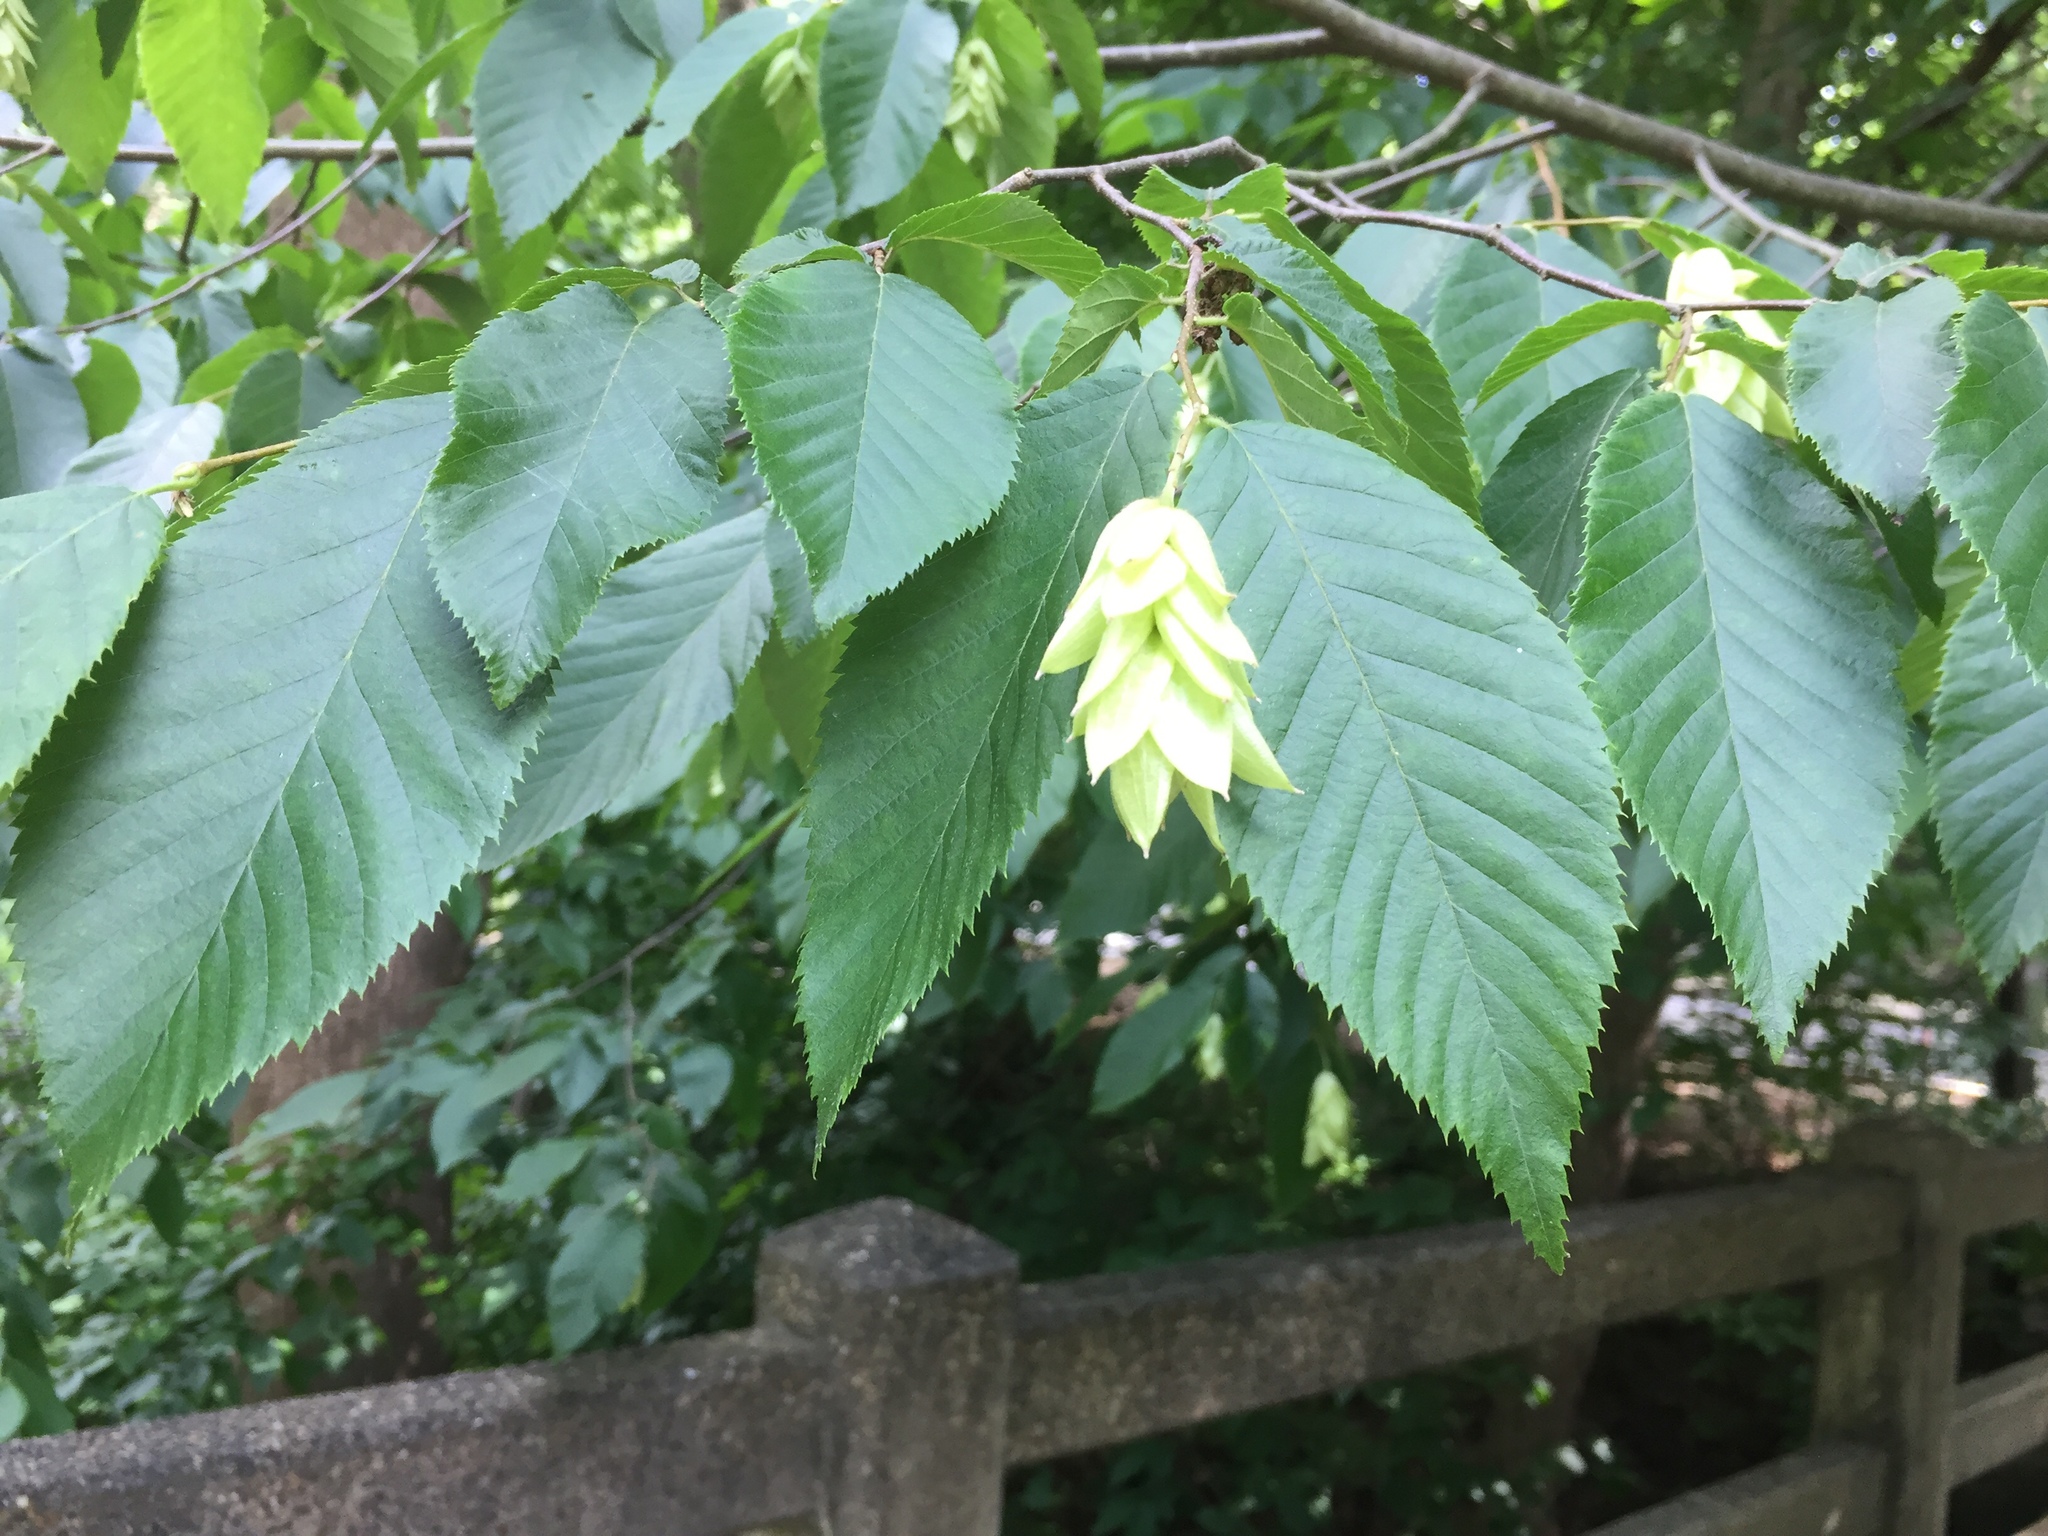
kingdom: Plantae
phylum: Tracheophyta
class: Magnoliopsida
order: Fagales
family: Betulaceae
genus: Ostrya
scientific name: Ostrya virginiana
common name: Ironwood
